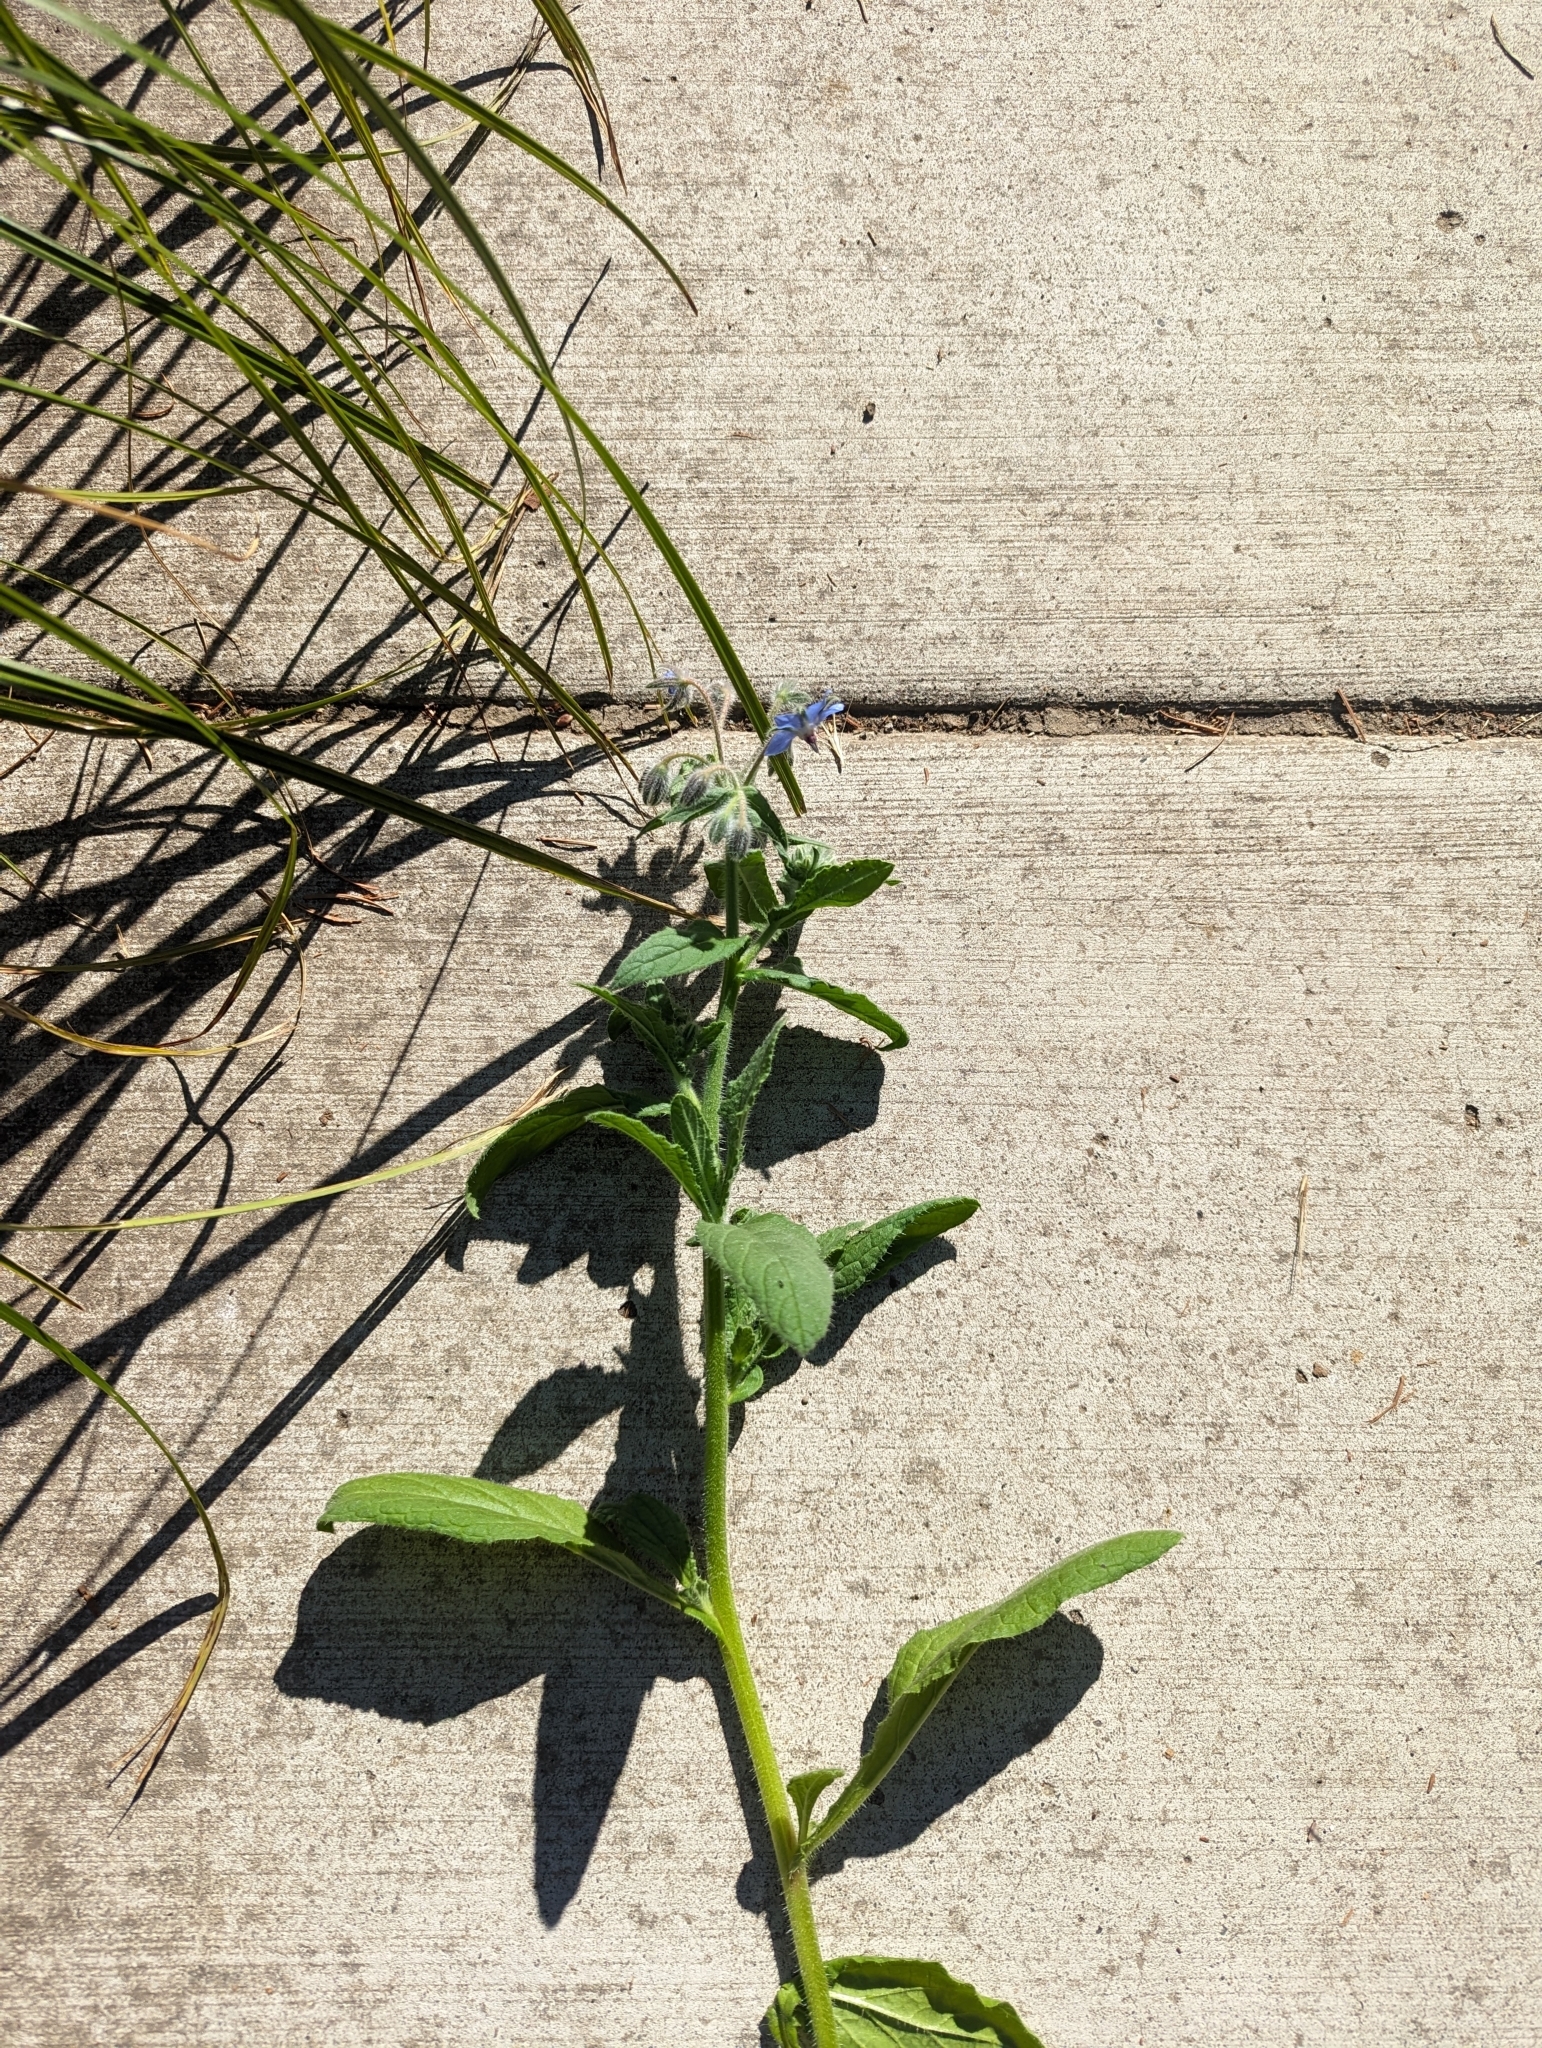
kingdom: Plantae
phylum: Tracheophyta
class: Magnoliopsida
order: Boraginales
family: Boraginaceae
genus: Borago
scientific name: Borago officinalis
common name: Borage
